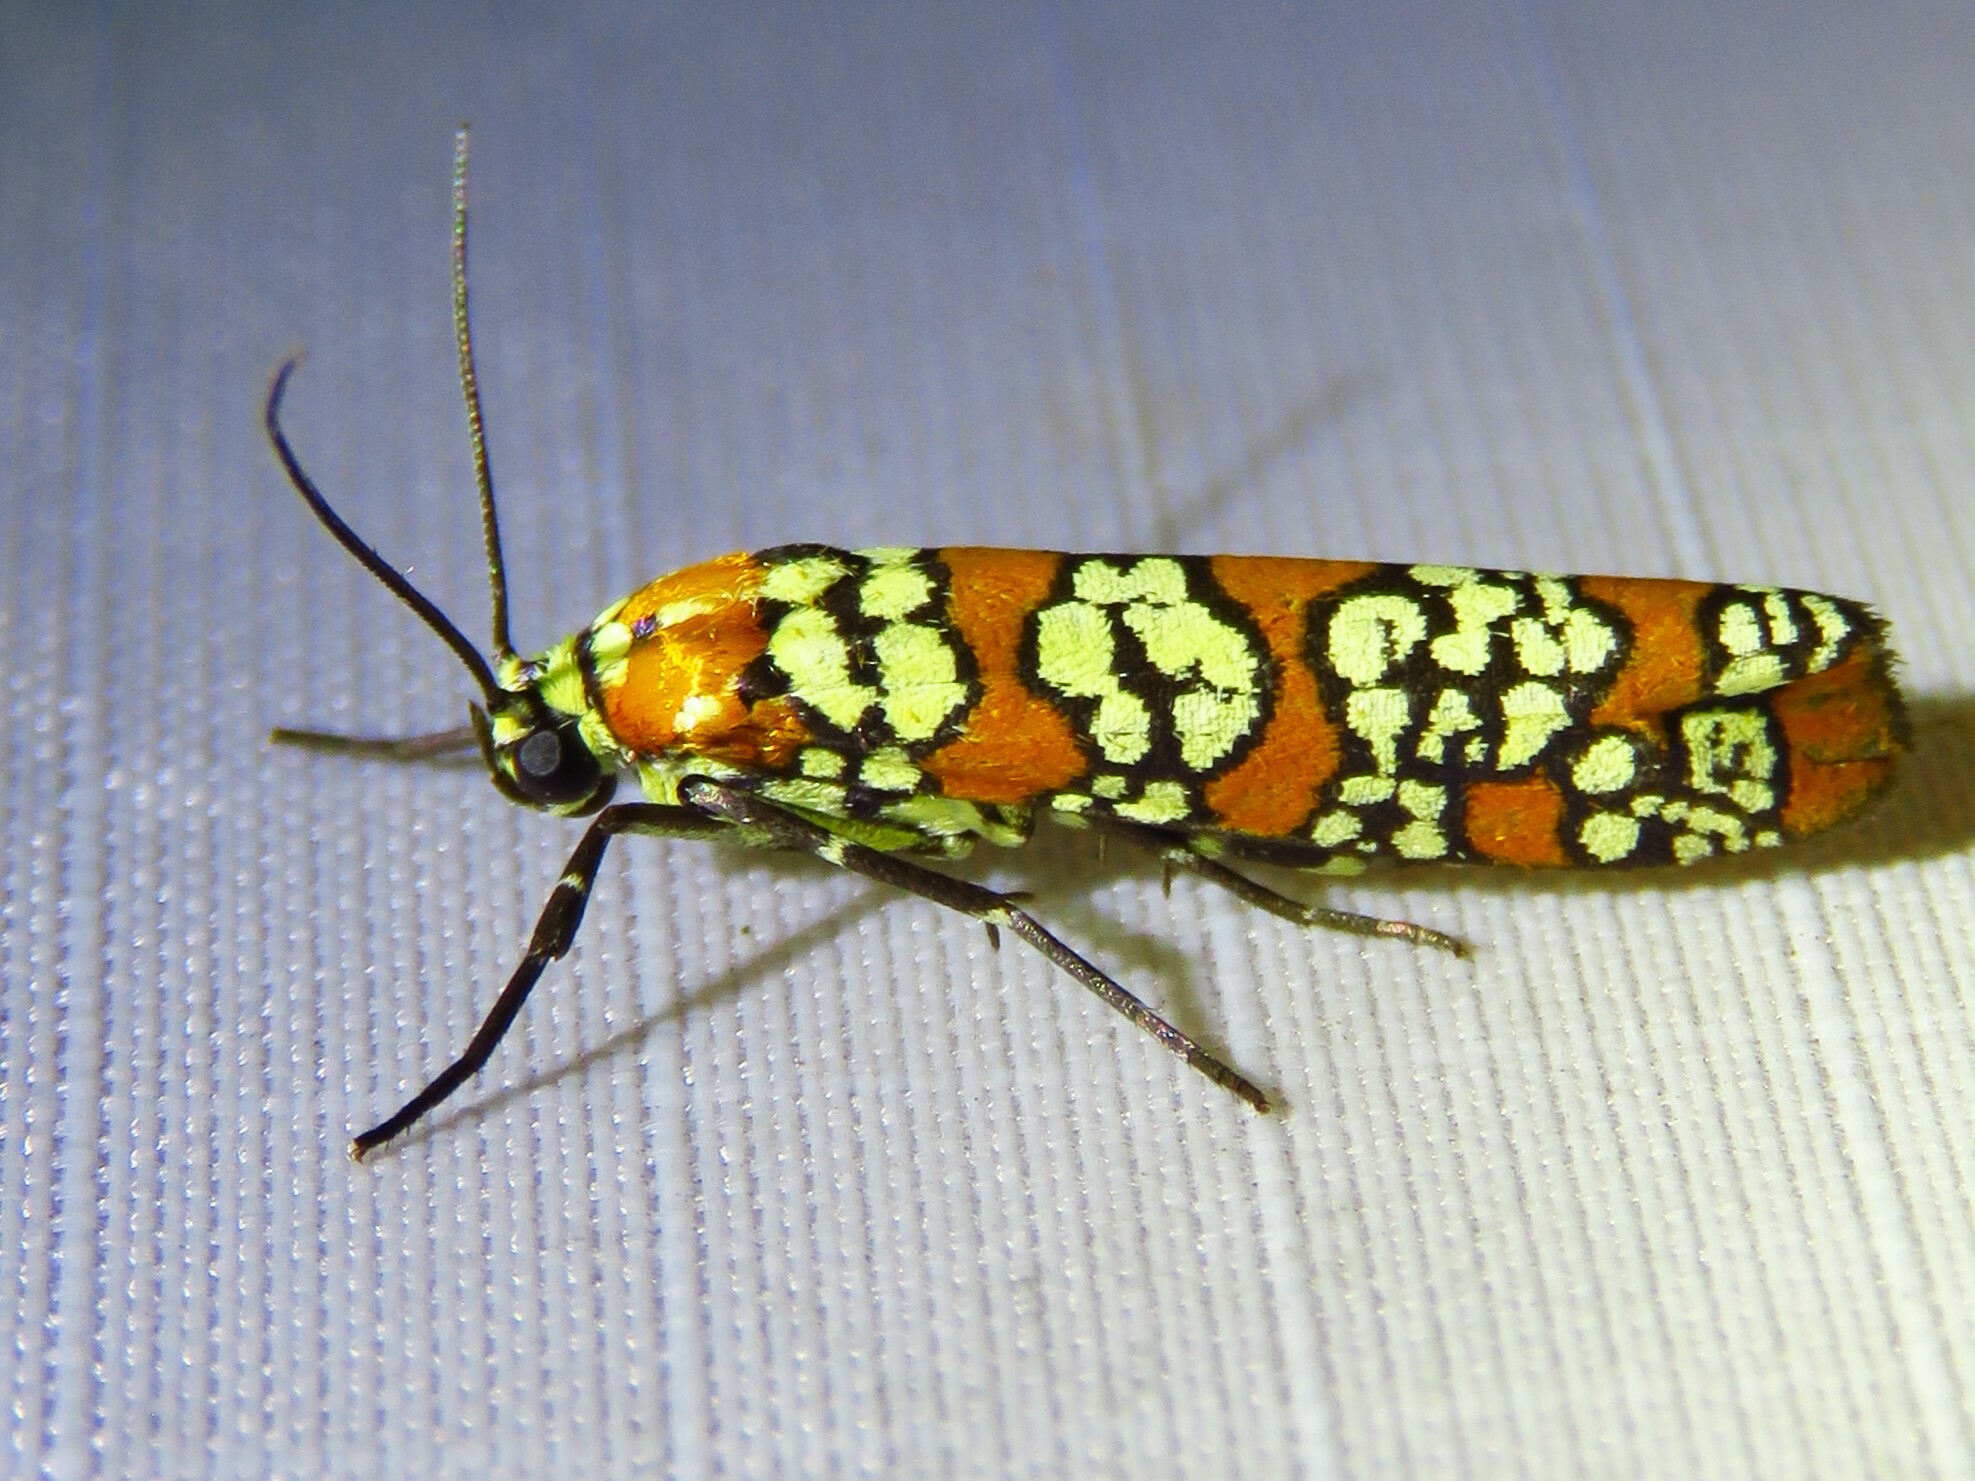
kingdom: Animalia
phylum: Arthropoda
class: Insecta
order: Lepidoptera
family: Attevidae
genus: Atteva
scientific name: Atteva punctella
